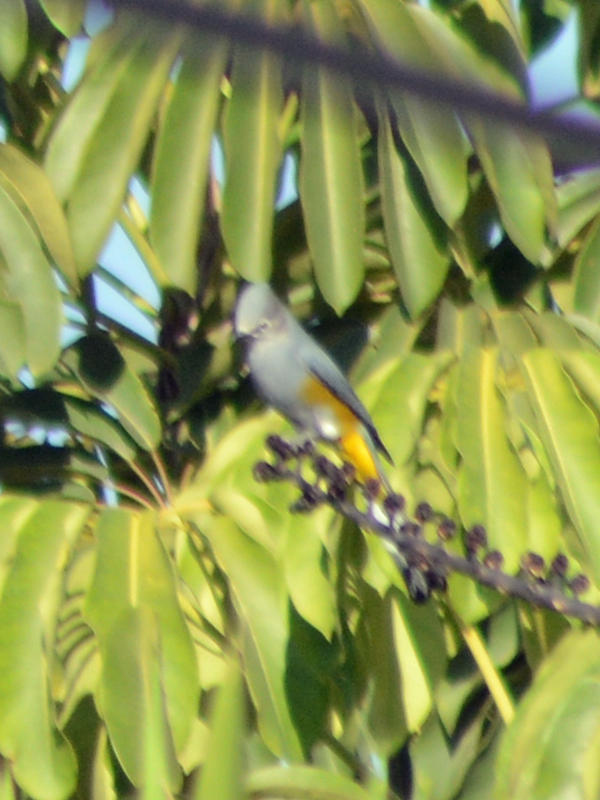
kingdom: Animalia
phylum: Chordata
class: Aves
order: Passeriformes
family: Ptilogonatidae
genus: Ptilogonys
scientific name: Ptilogonys cinereus
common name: Gray silky-flycatcher
